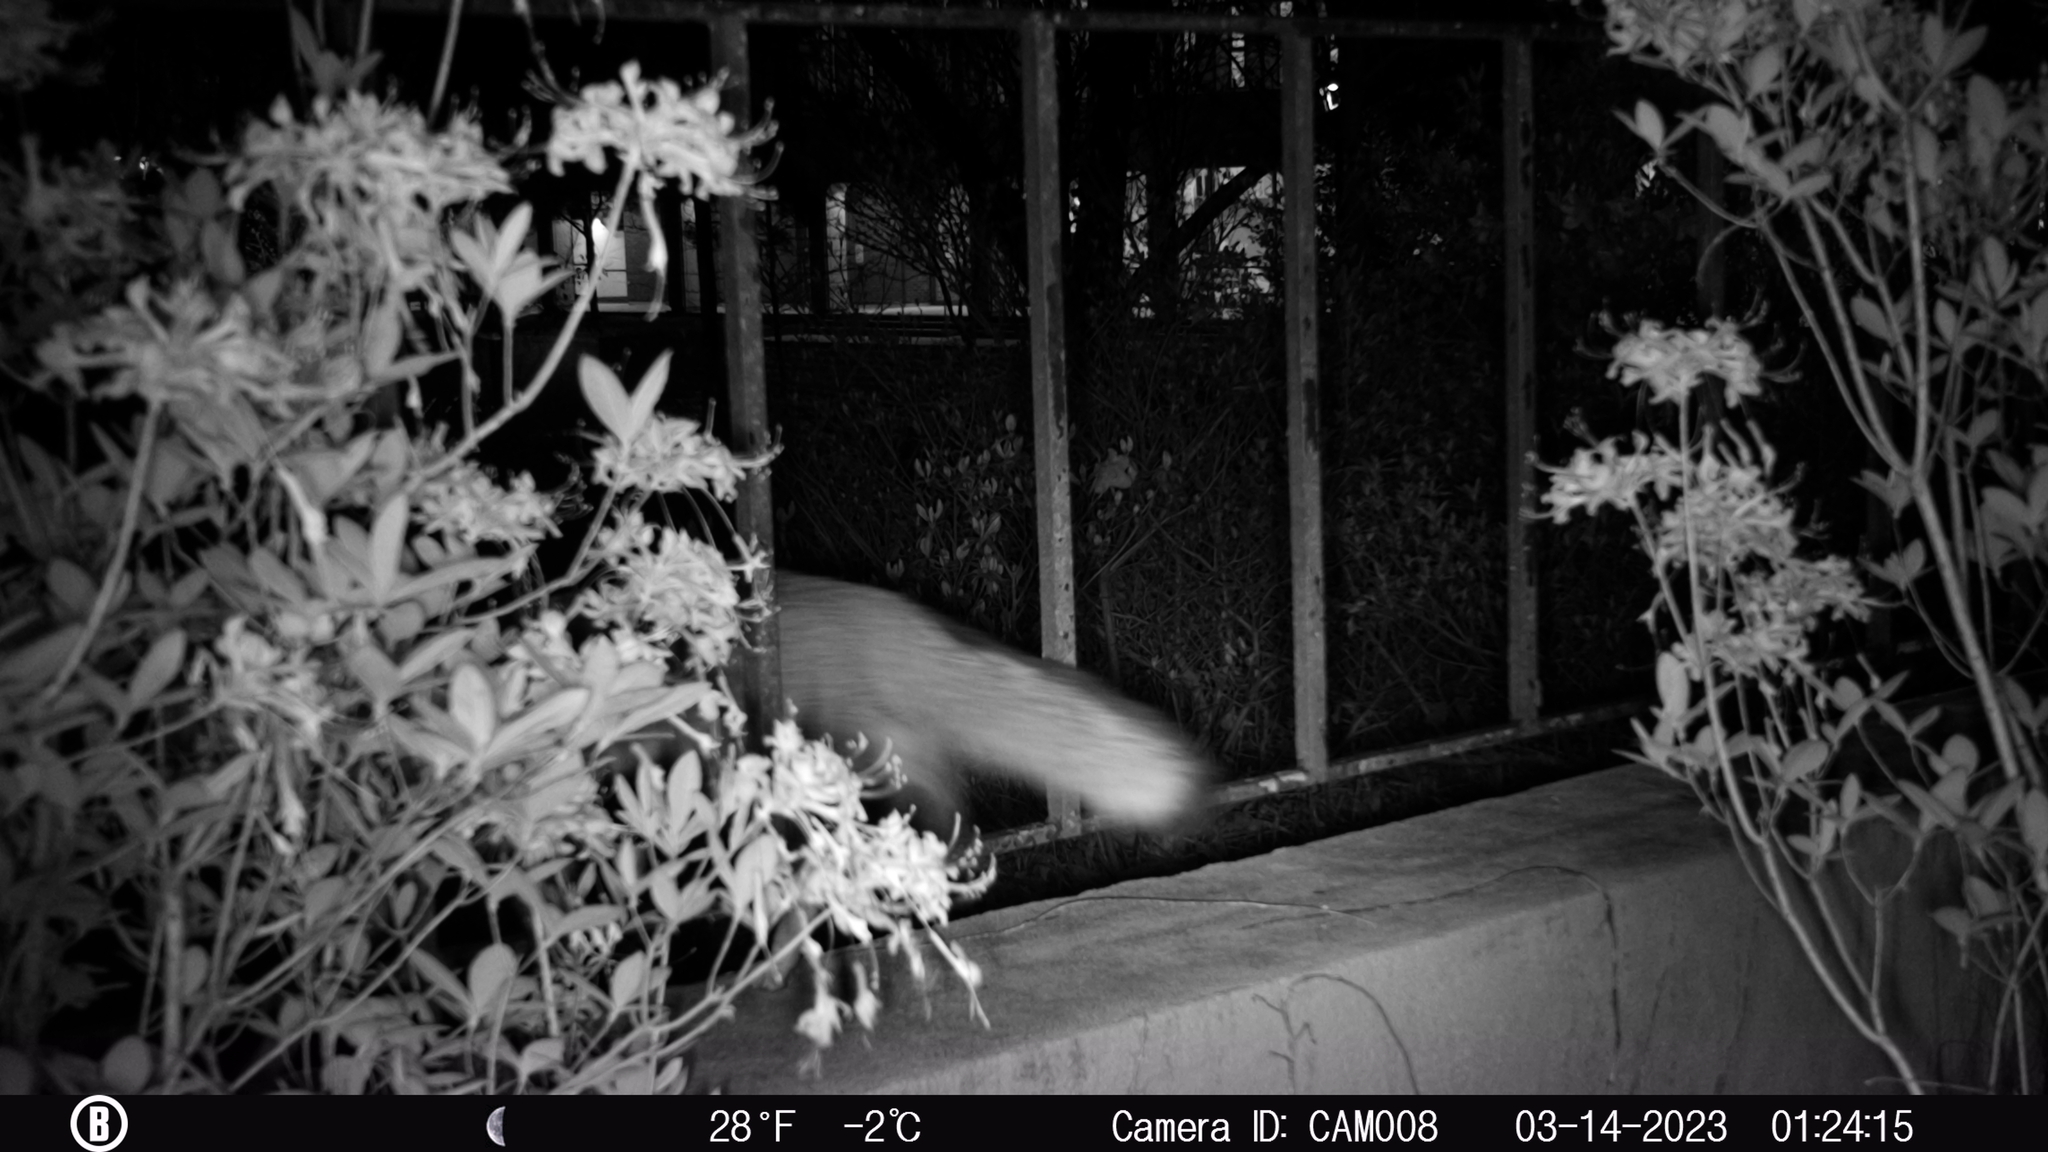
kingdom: Animalia
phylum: Chordata
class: Mammalia
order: Carnivora
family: Canidae
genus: Urocyon
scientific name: Urocyon cinereoargenteus
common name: Gray fox
